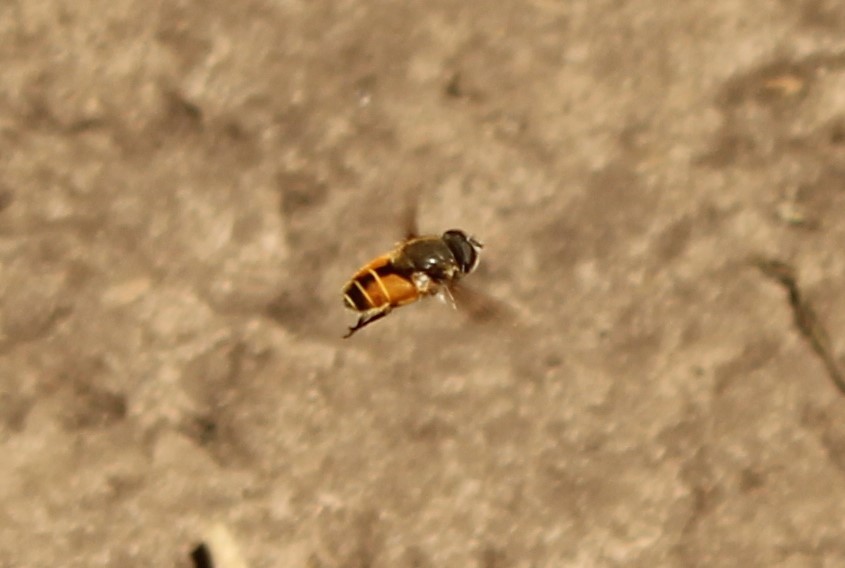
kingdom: Animalia
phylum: Arthropoda
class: Insecta
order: Diptera
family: Syrphidae
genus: Eristalis
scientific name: Eristalis bogotensis
